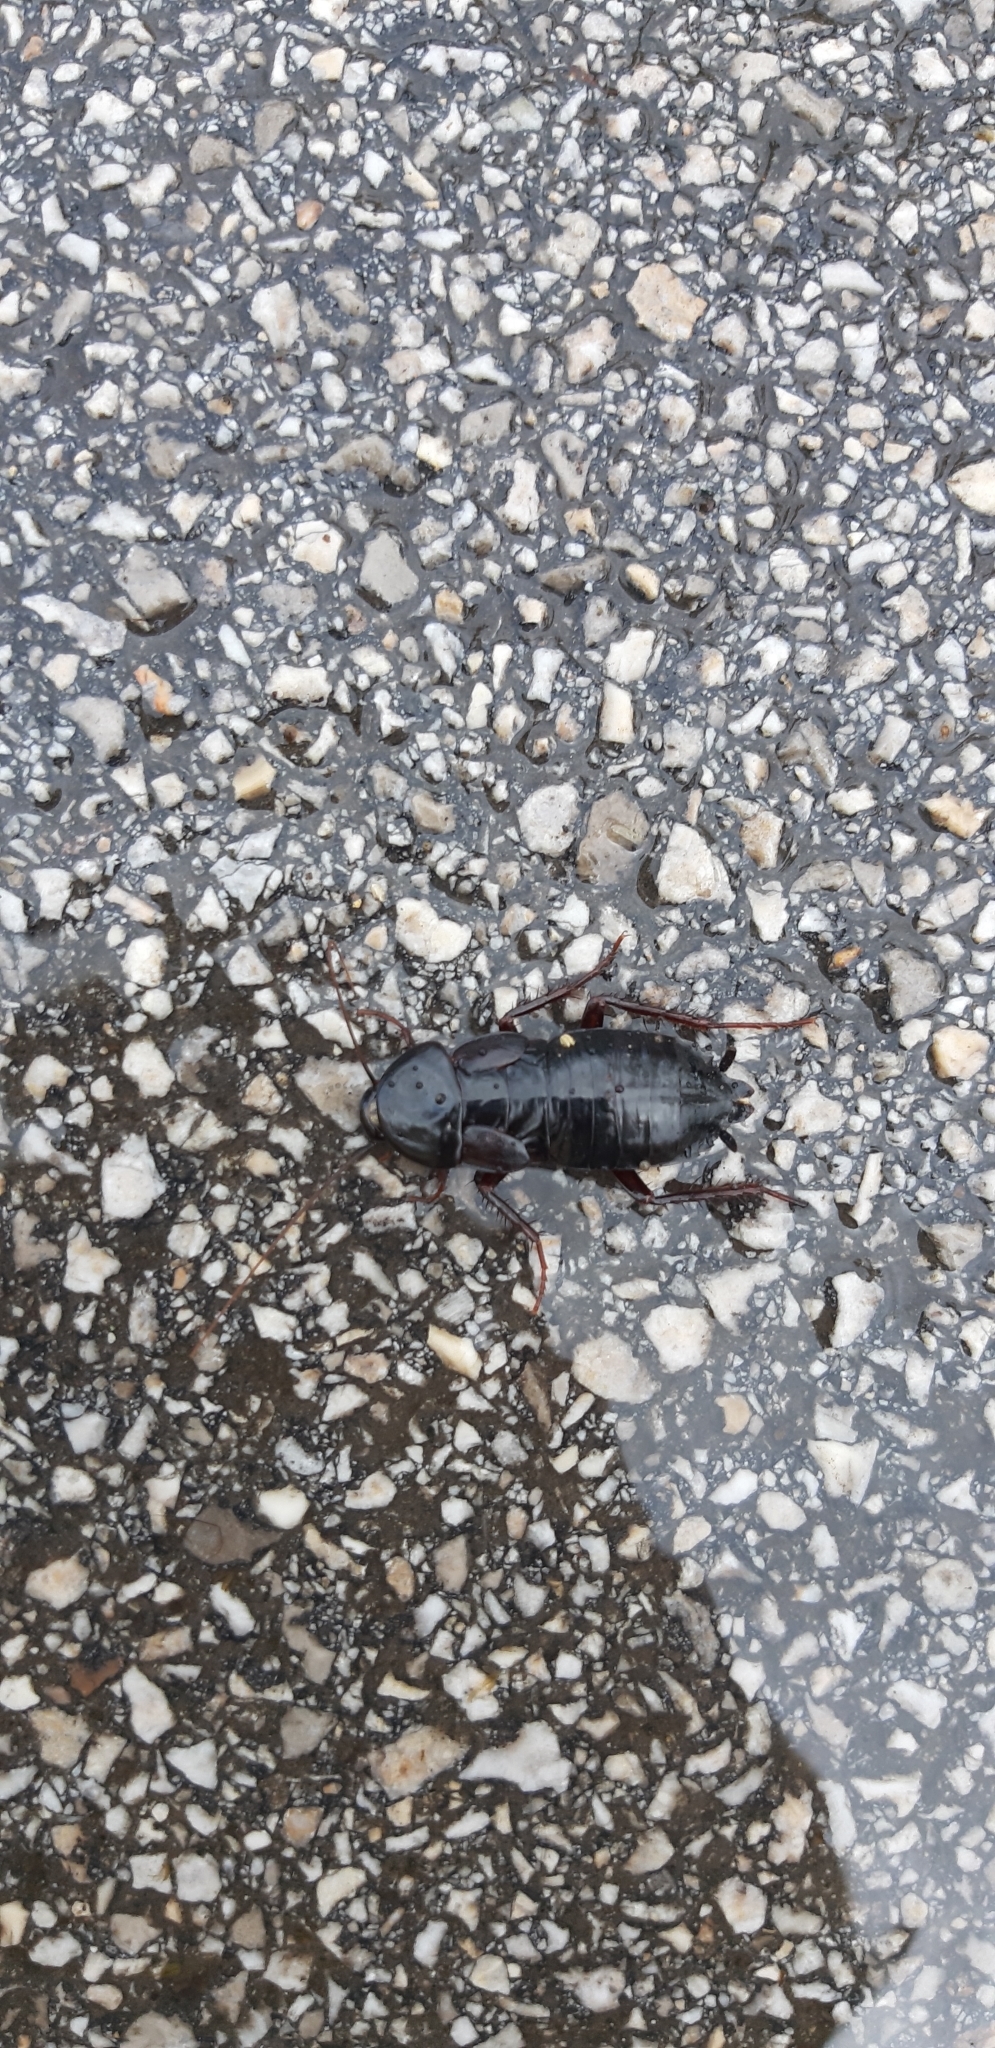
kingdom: Animalia
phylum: Arthropoda
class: Insecta
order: Blattodea
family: Blattidae
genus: Blatta
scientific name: Blatta orientalis
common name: Oriental cockroach
